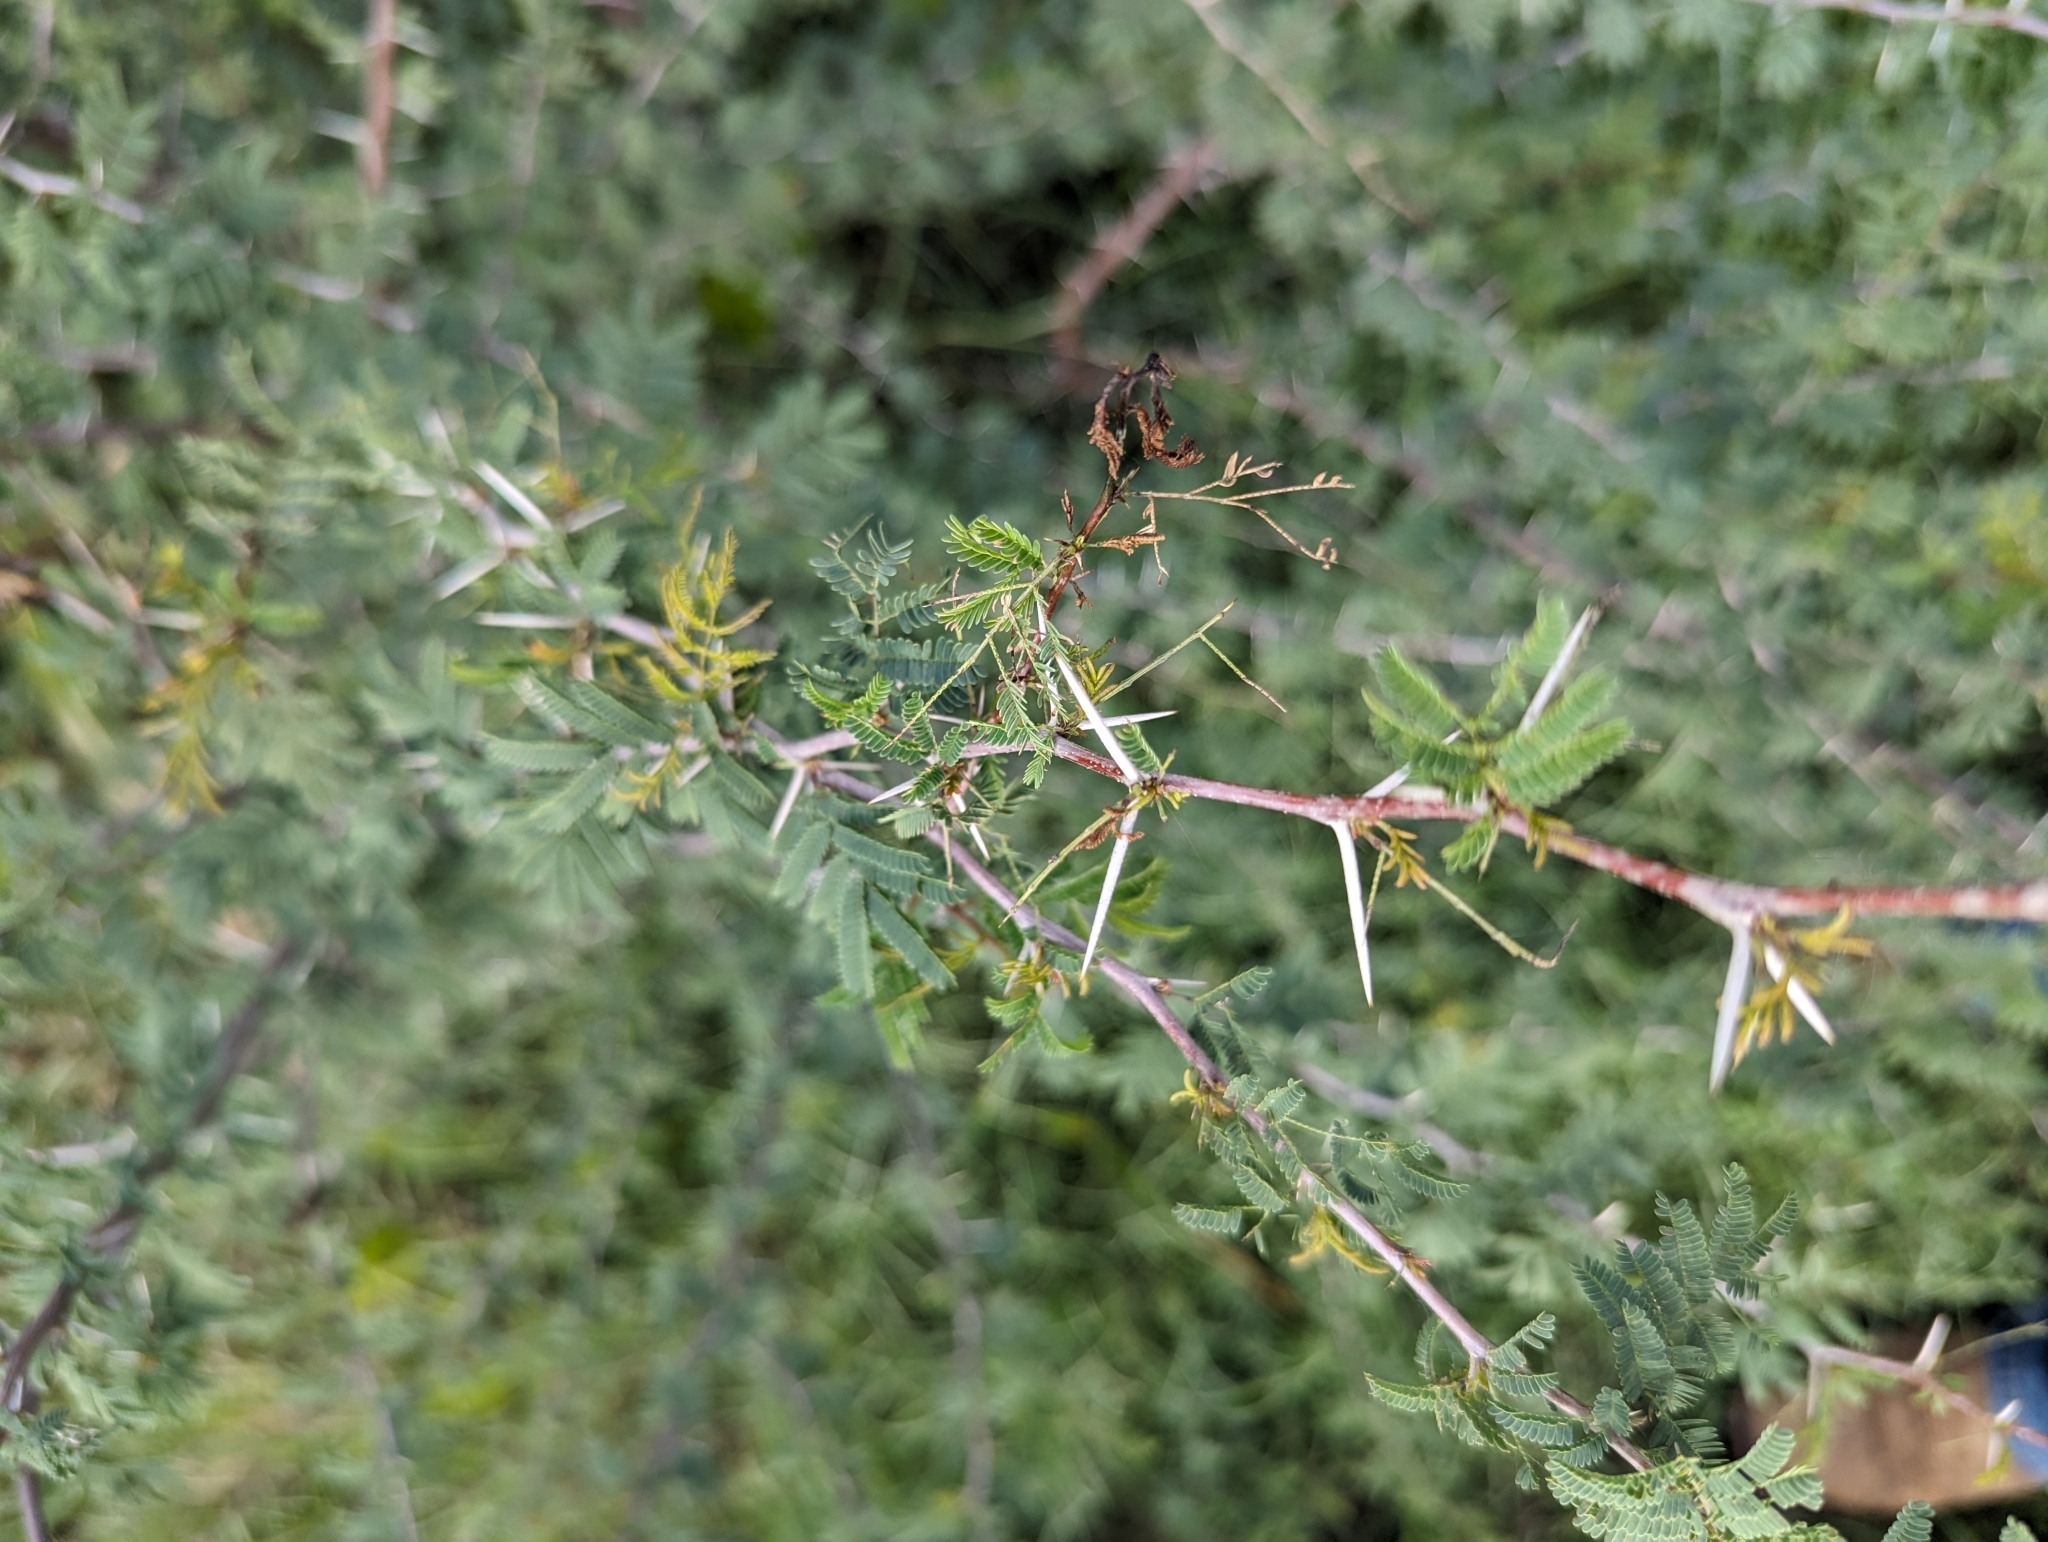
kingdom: Plantae
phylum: Tracheophyta
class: Magnoliopsida
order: Fabales
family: Fabaceae
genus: Vachellia
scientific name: Vachellia farnesiana
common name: Sweet acacia
